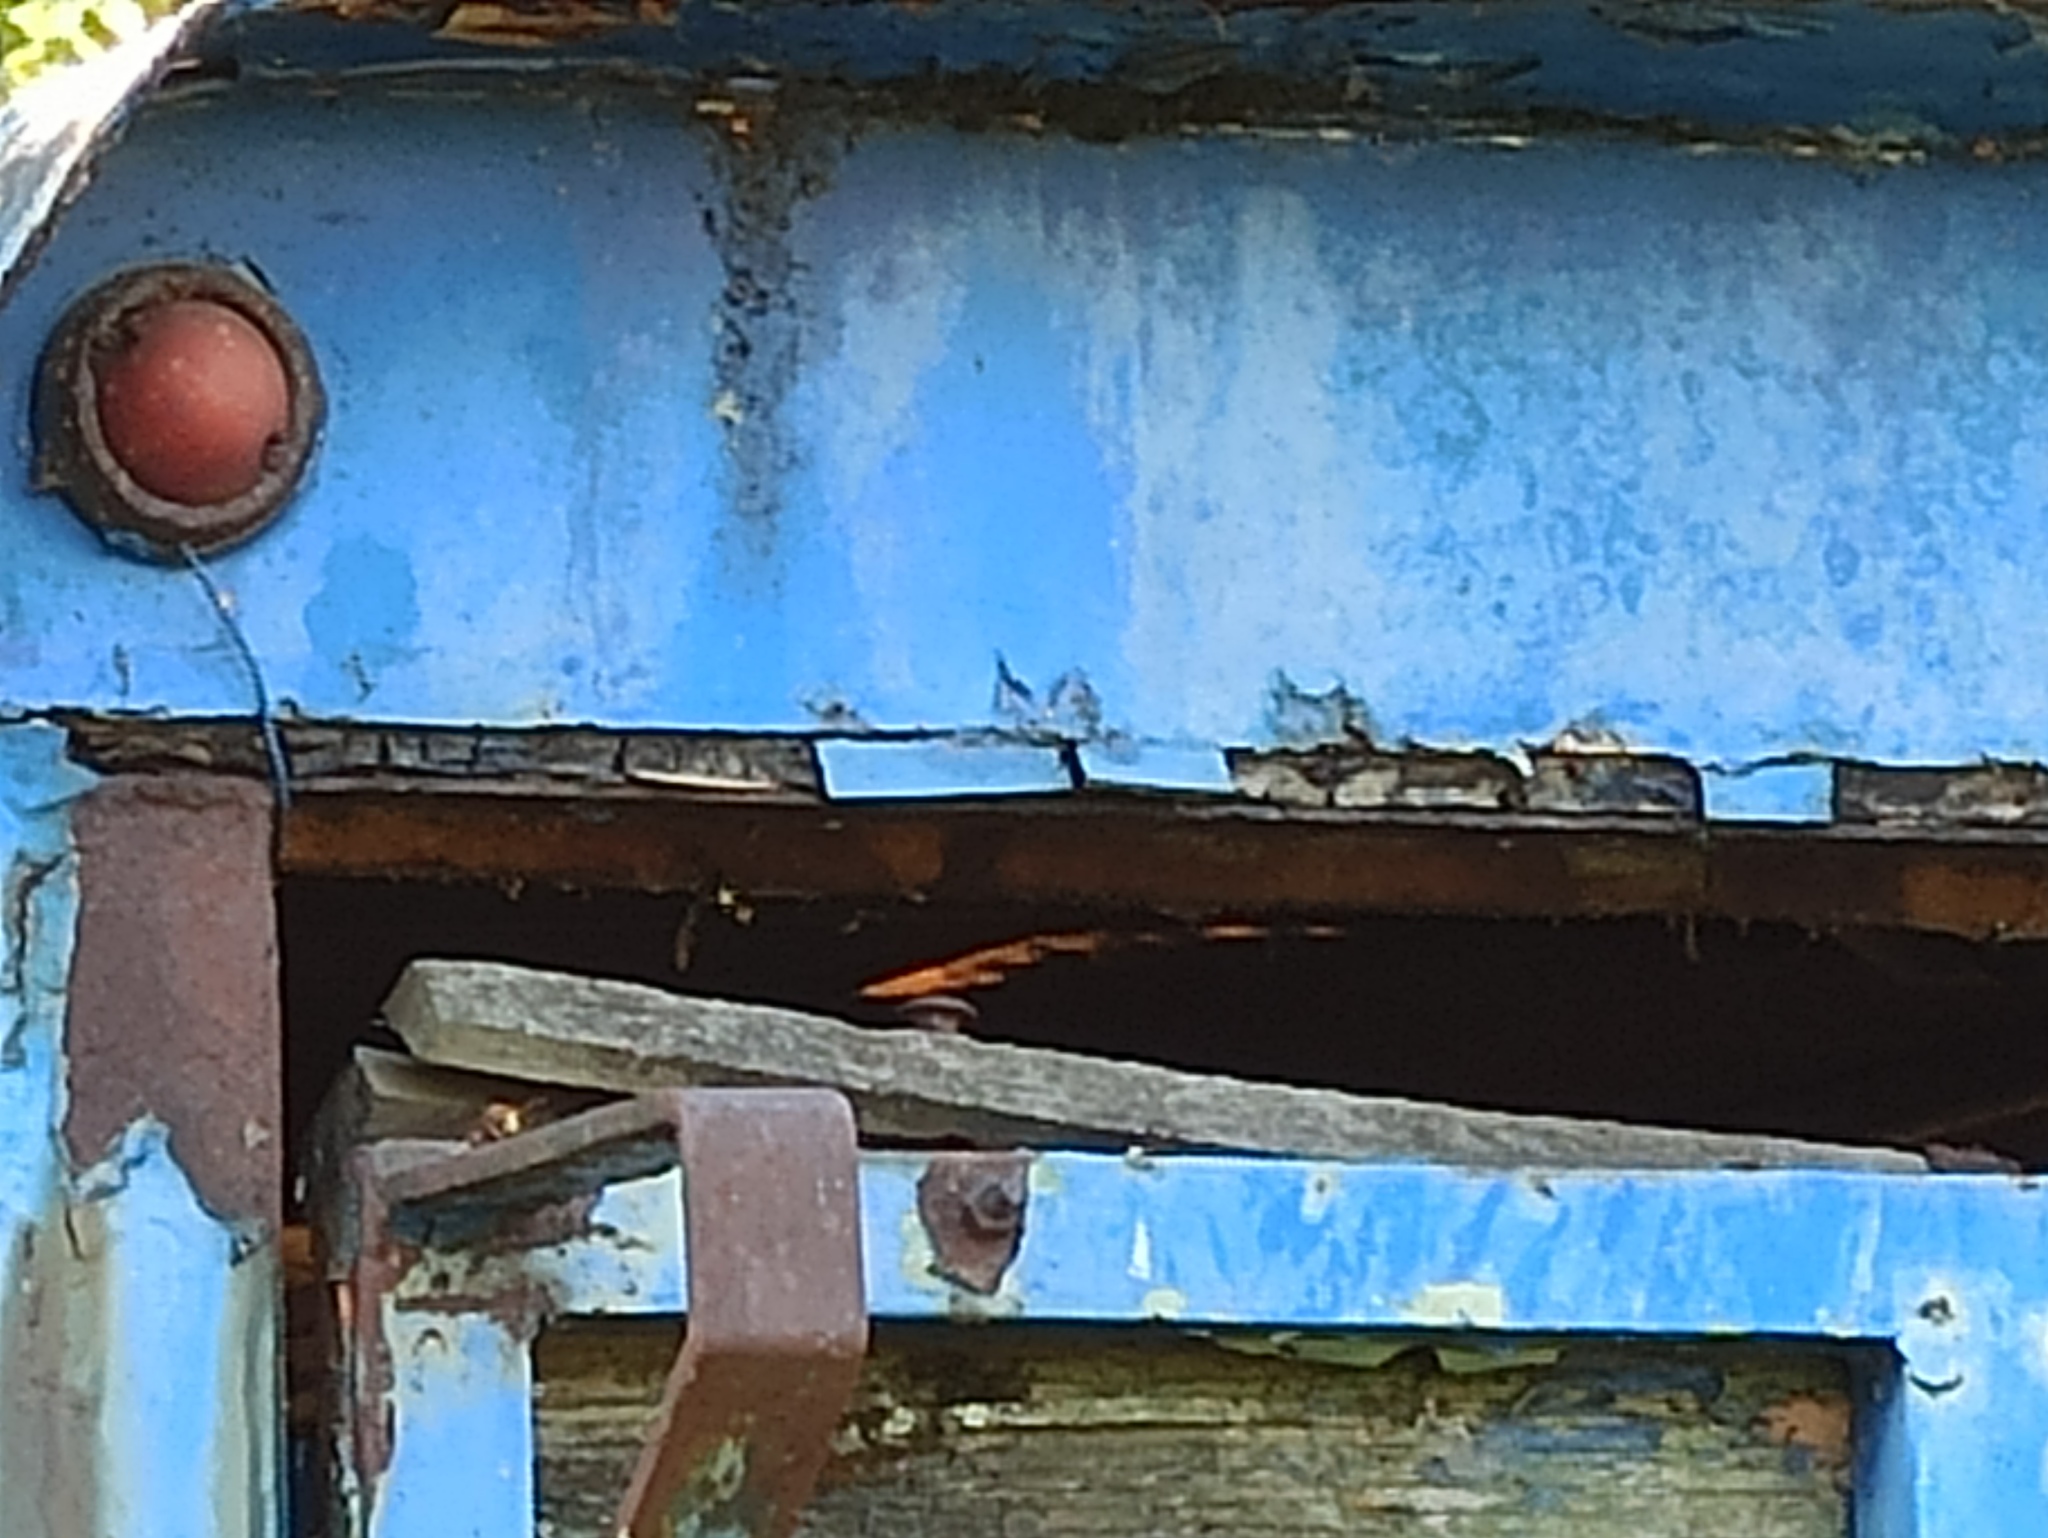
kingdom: Animalia
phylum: Arthropoda
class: Insecta
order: Hymenoptera
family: Vespidae
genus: Vespa
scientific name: Vespa crabro
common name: Hornet
